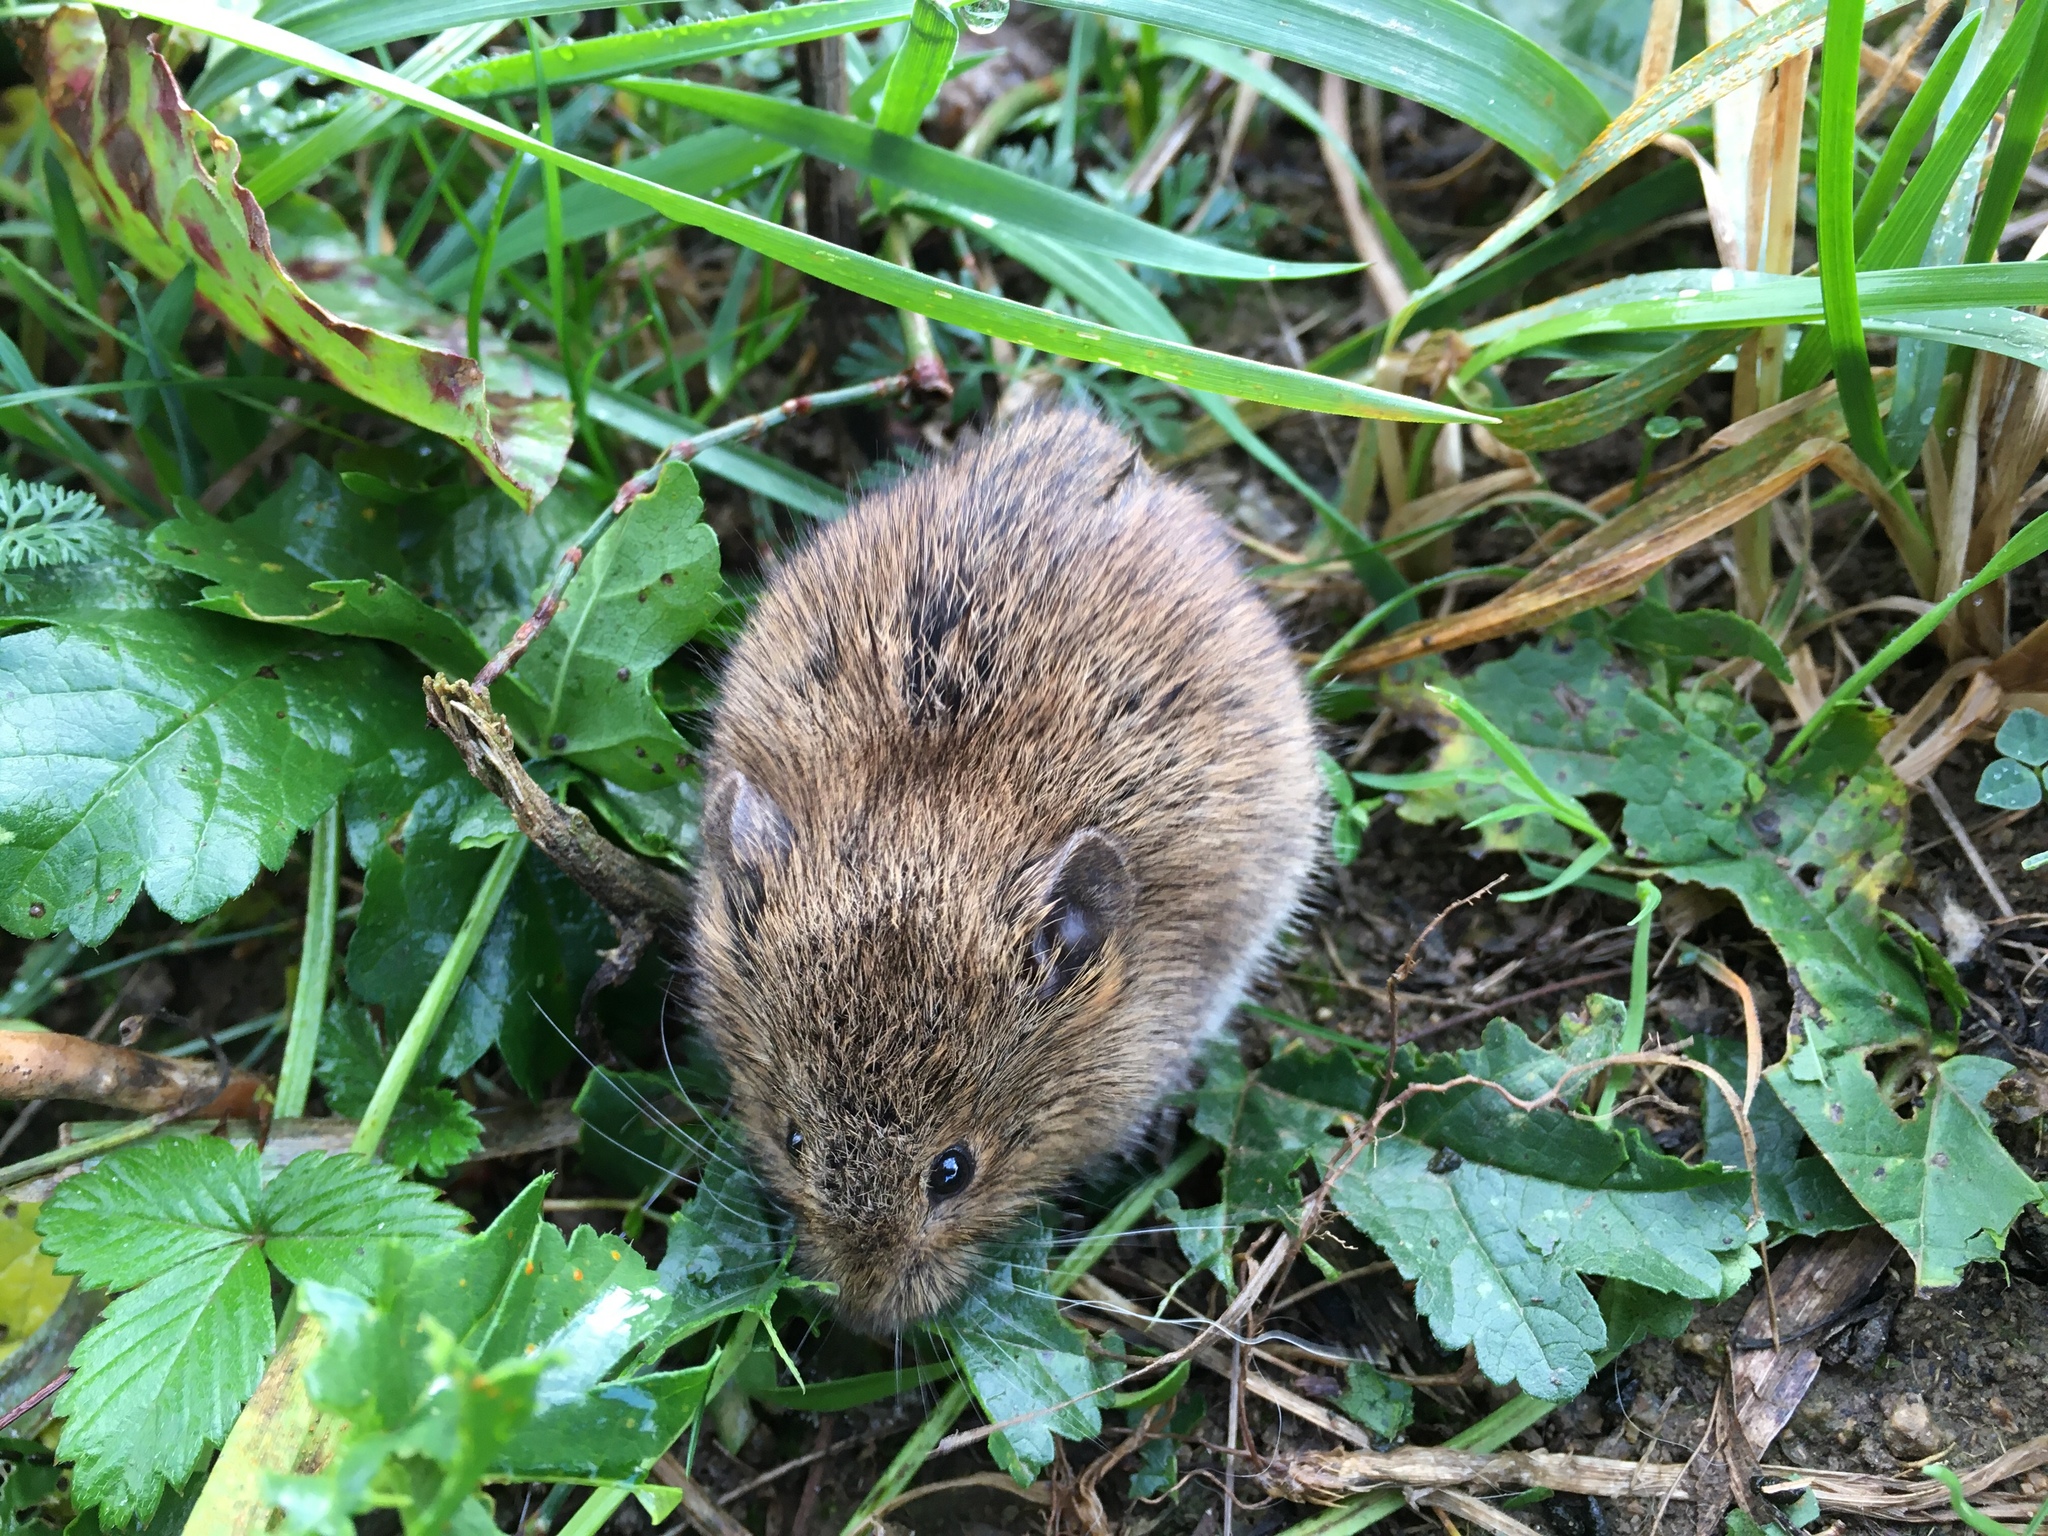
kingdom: Animalia
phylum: Chordata
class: Mammalia
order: Rodentia
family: Cricetidae
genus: Microtus
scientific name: Microtus arvalis
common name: Common vole
